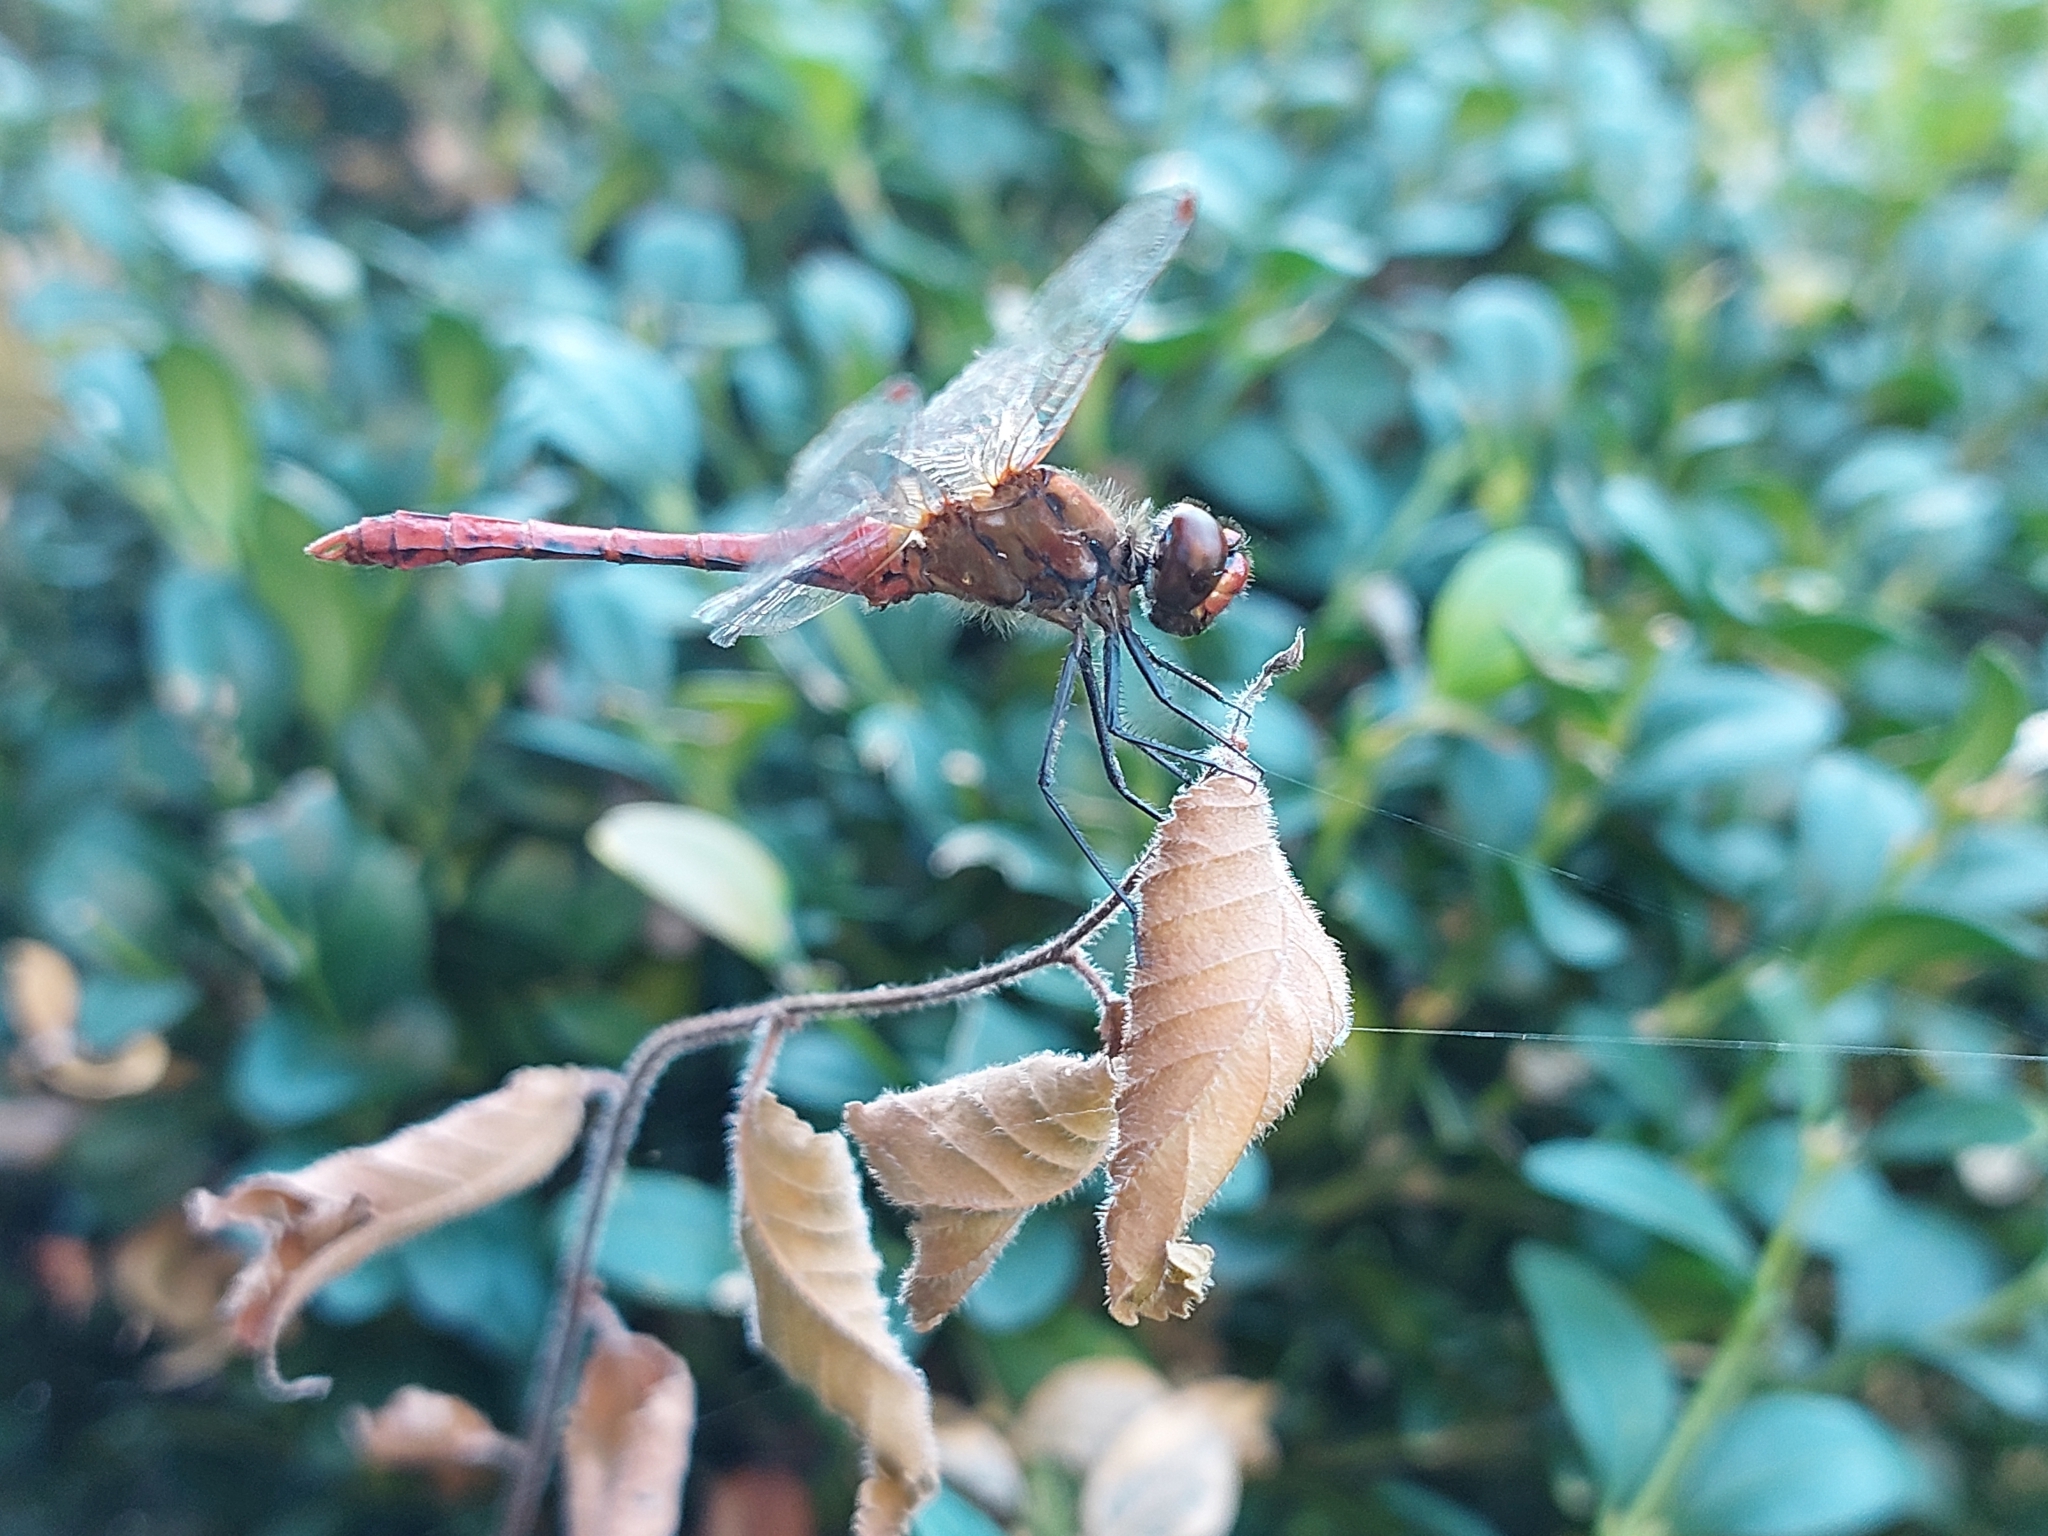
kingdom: Animalia
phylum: Arthropoda
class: Insecta
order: Odonata
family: Libellulidae
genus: Sympetrum
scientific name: Sympetrum sanguineum
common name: Ruddy darter
